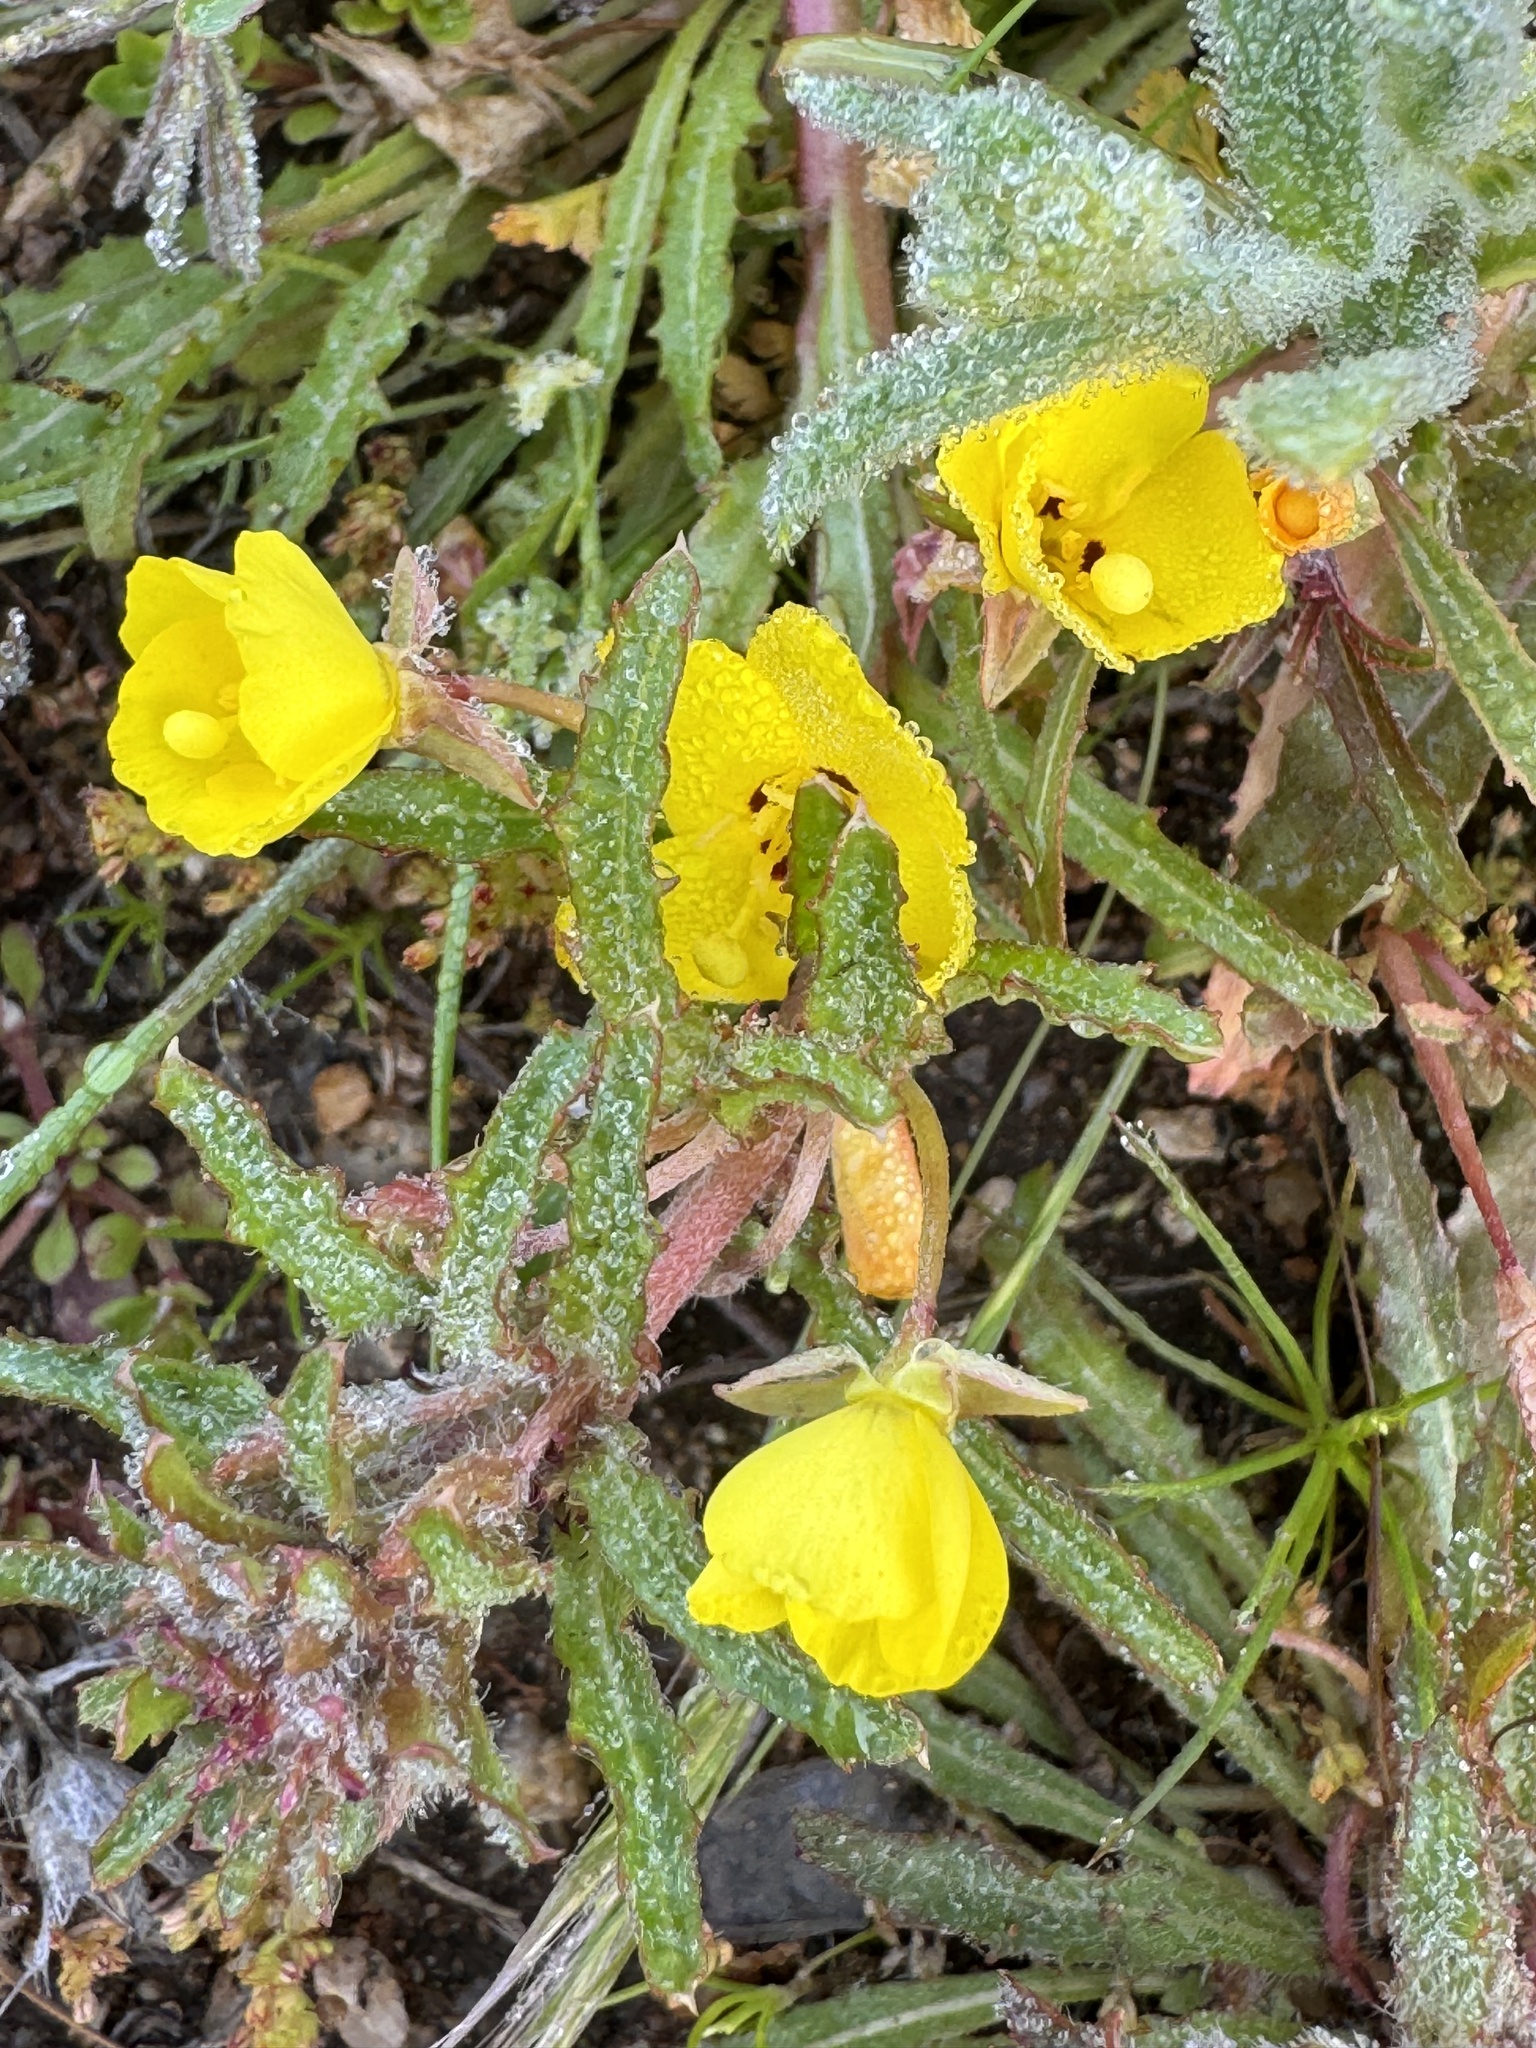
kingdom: Plantae
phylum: Tracheophyta
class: Magnoliopsida
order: Myrtales
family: Onagraceae
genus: Camissoniopsis
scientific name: Camissoniopsis bistorta
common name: Southern suncup
